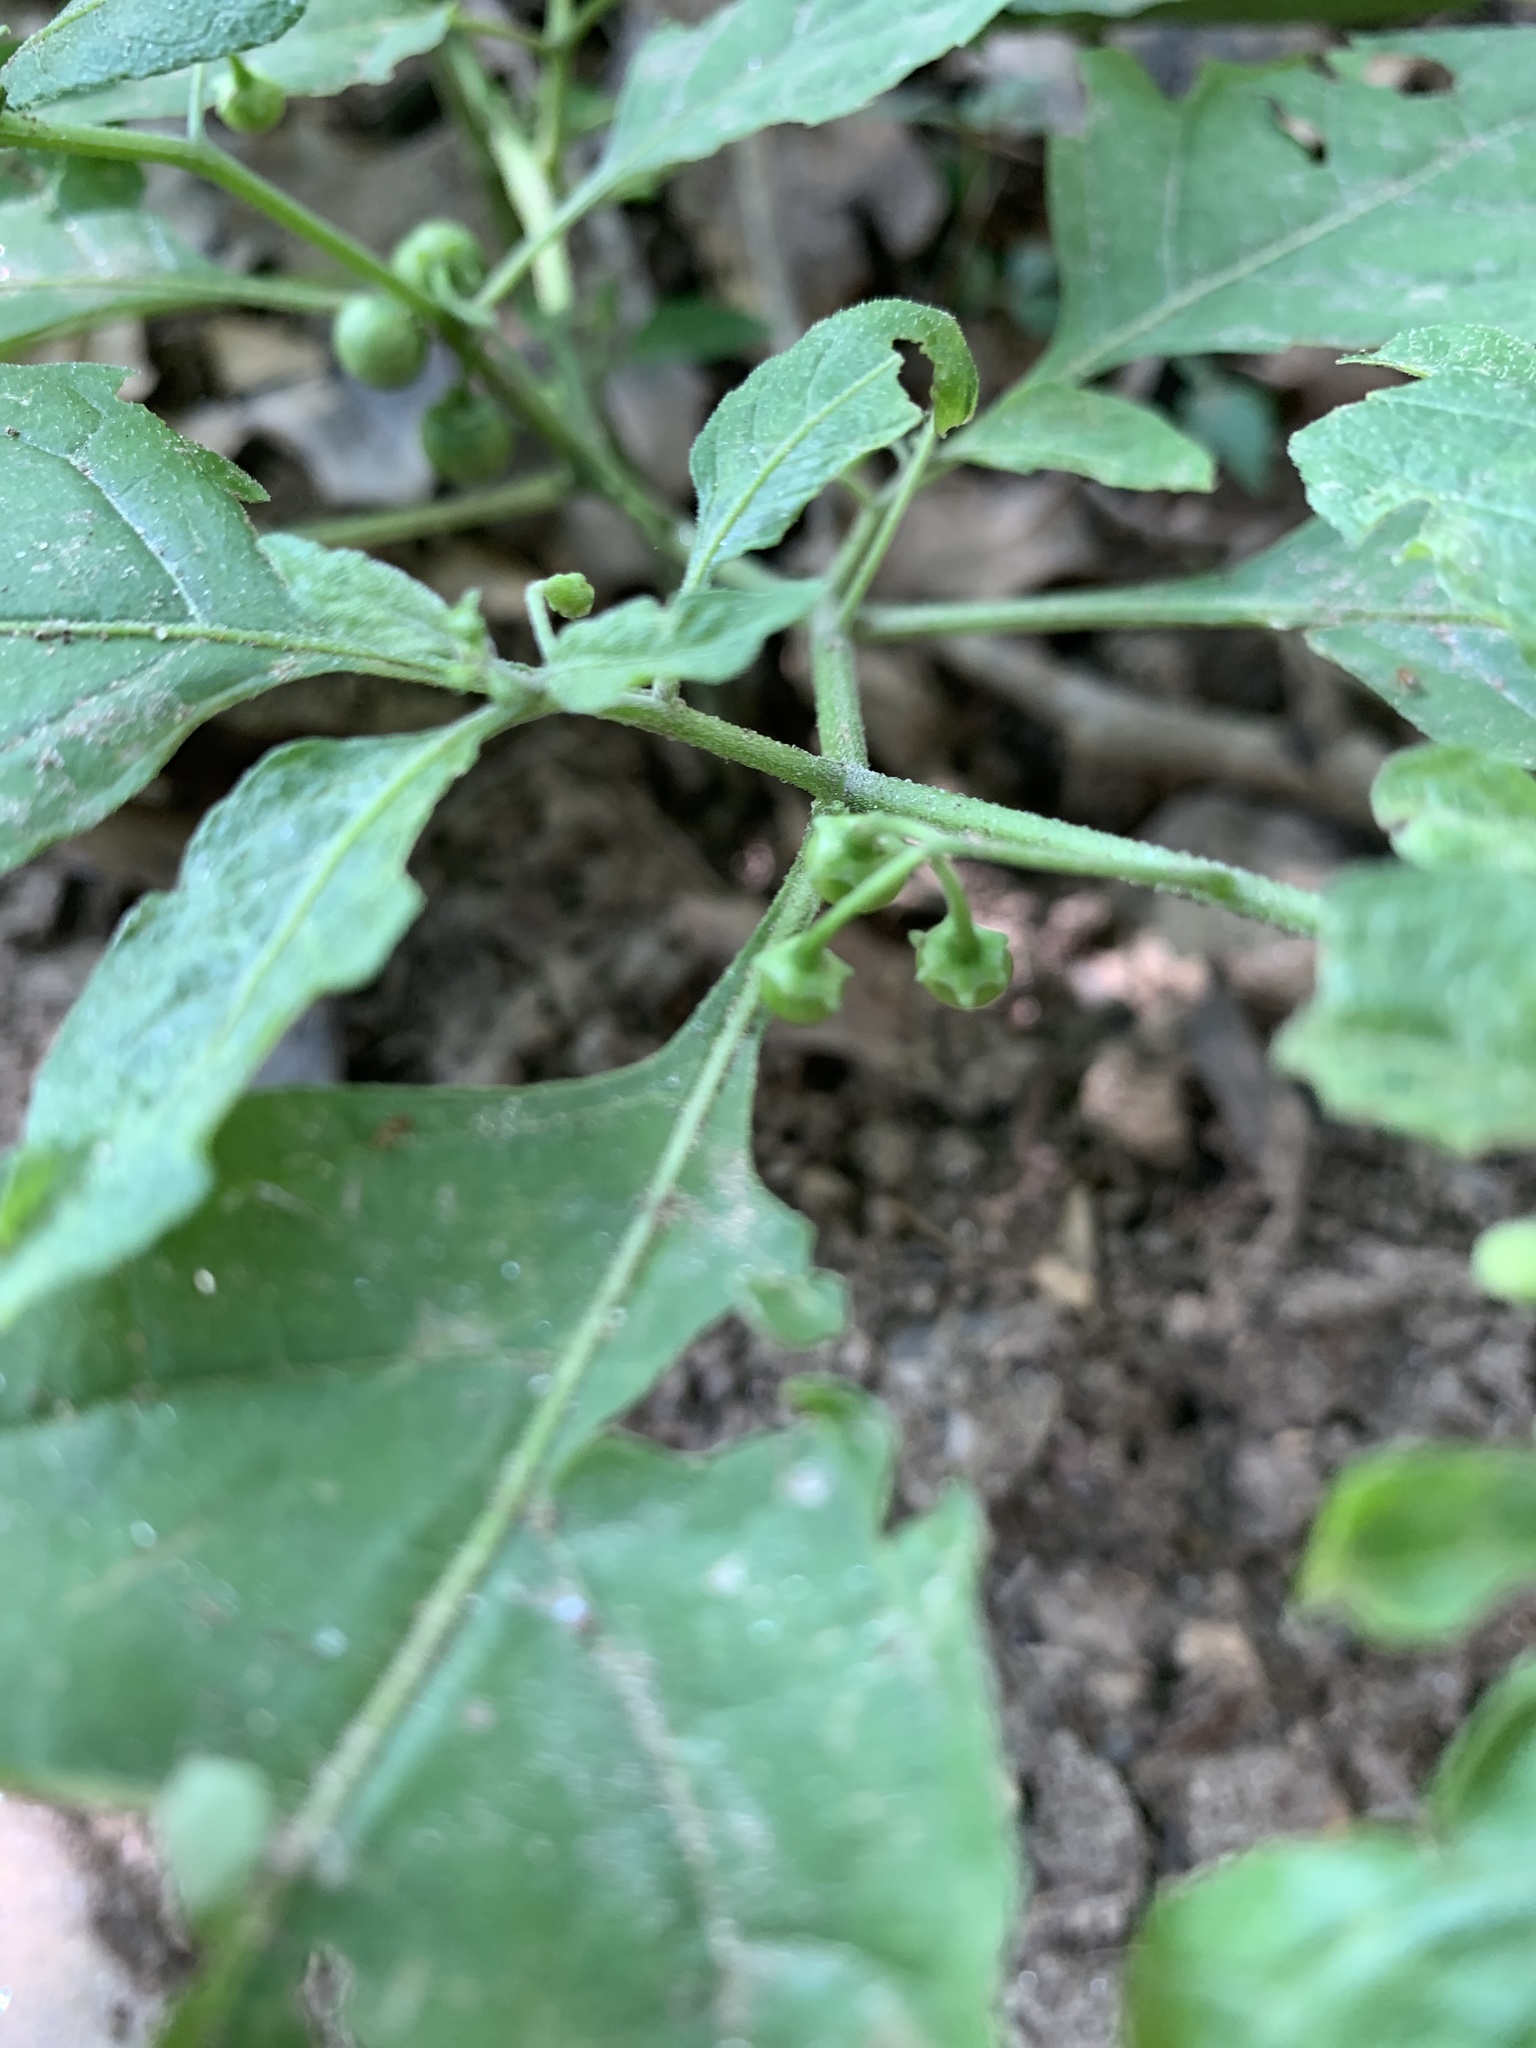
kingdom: Plantae
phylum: Tracheophyta
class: Magnoliopsida
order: Solanales
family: Solanaceae
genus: Solanum
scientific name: Solanum emulans
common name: Eastern black nightshade
